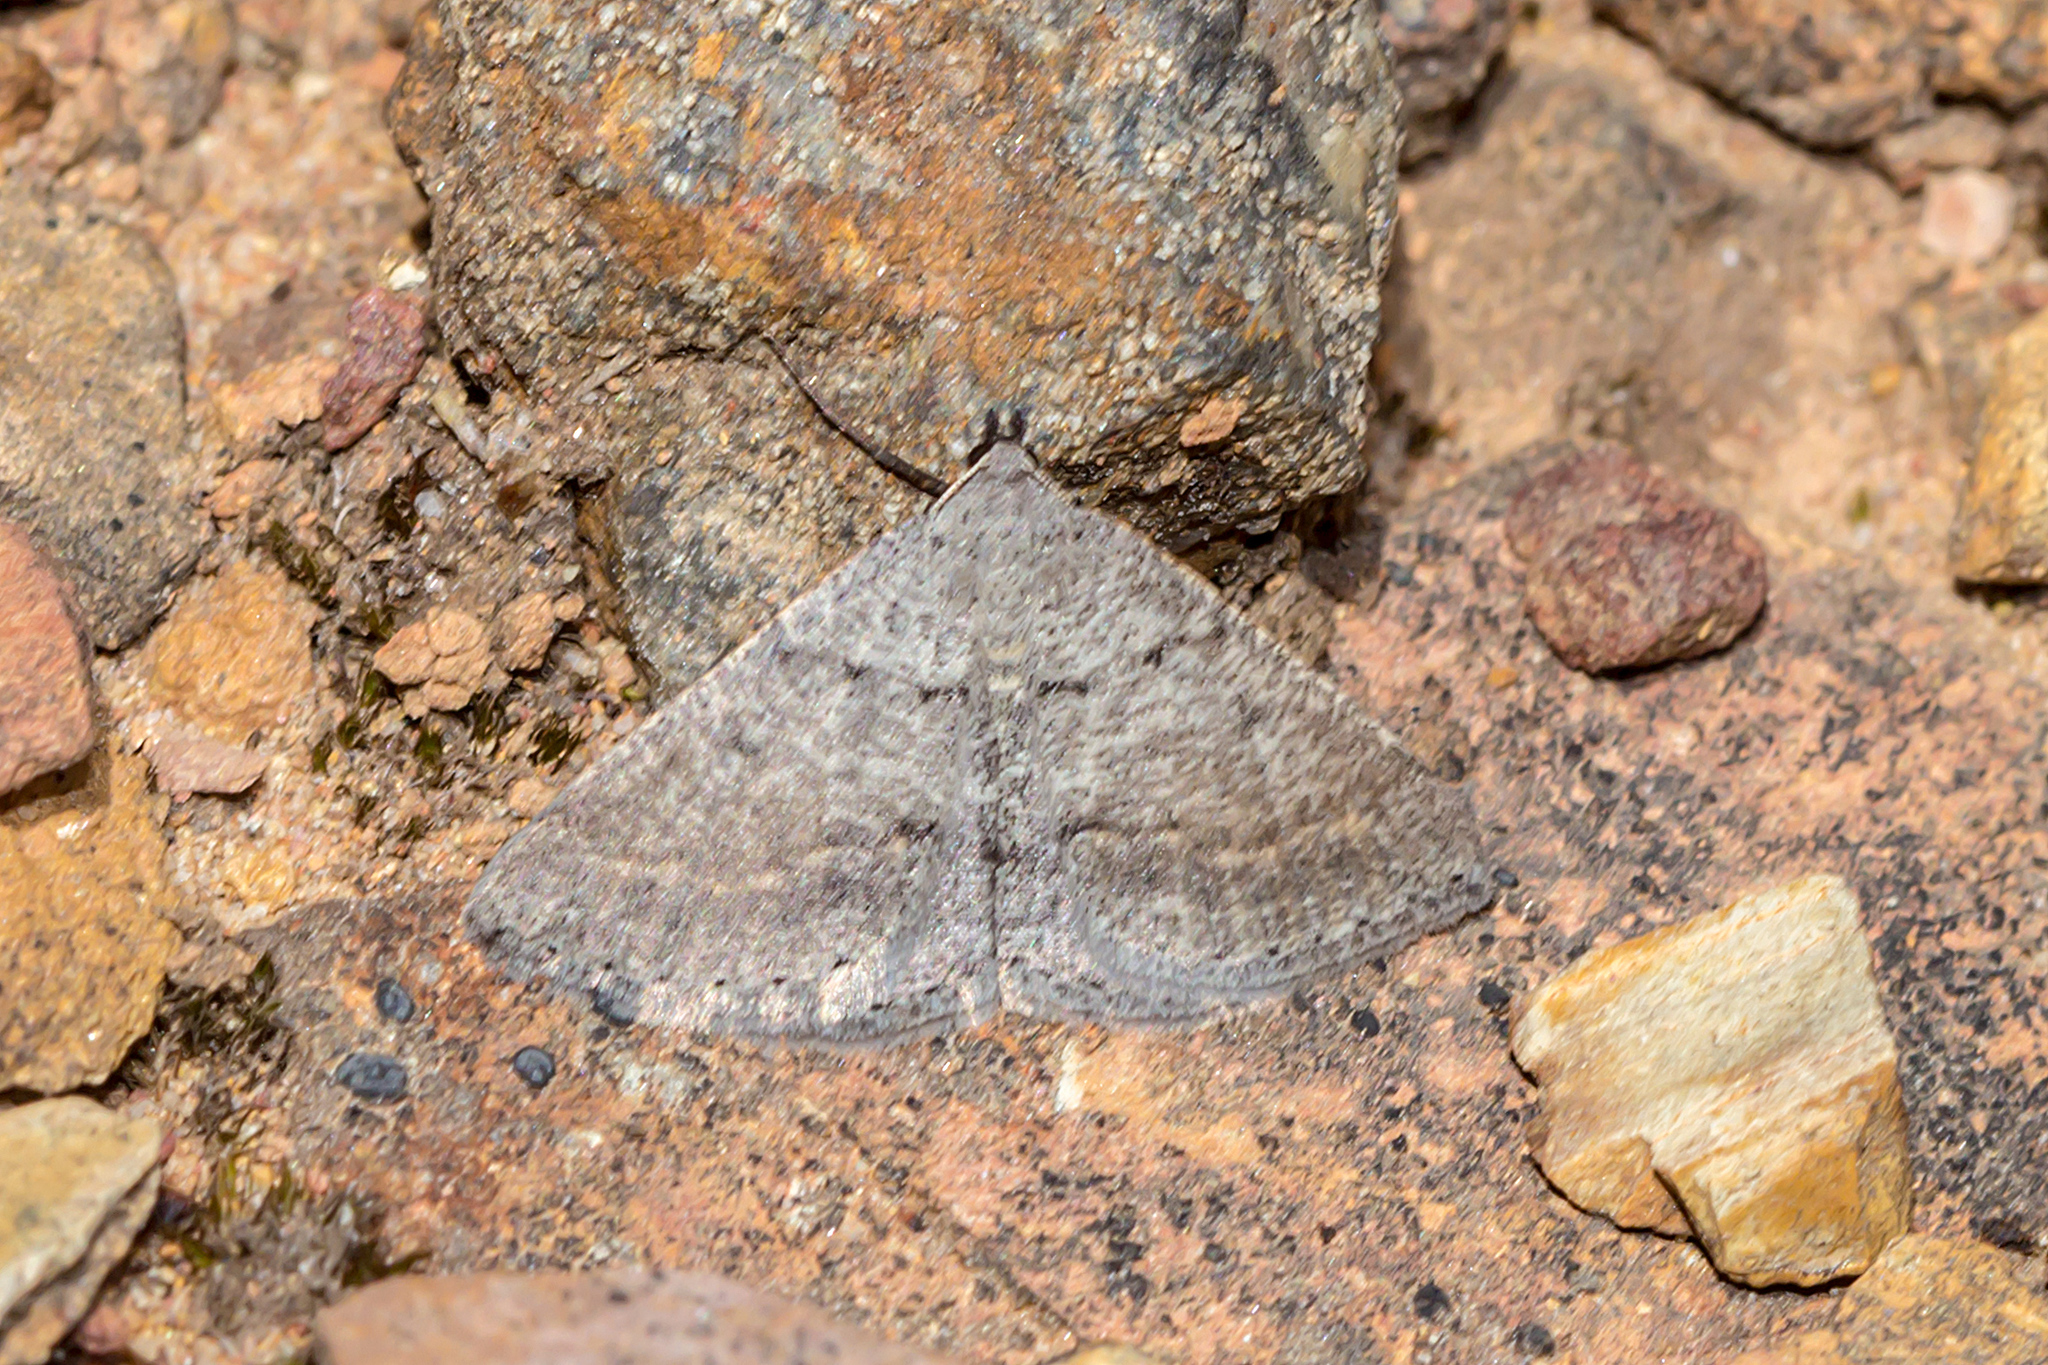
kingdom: Animalia
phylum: Arthropoda
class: Insecta
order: Lepidoptera
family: Geometridae
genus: Taxeotis
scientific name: Taxeotis reserata
